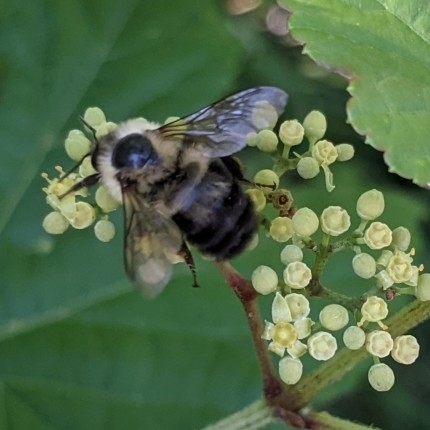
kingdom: Animalia
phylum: Arthropoda
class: Insecta
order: Hymenoptera
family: Apidae
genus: Bombus
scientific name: Bombus bimaculatus
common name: Two-spotted bumble bee
